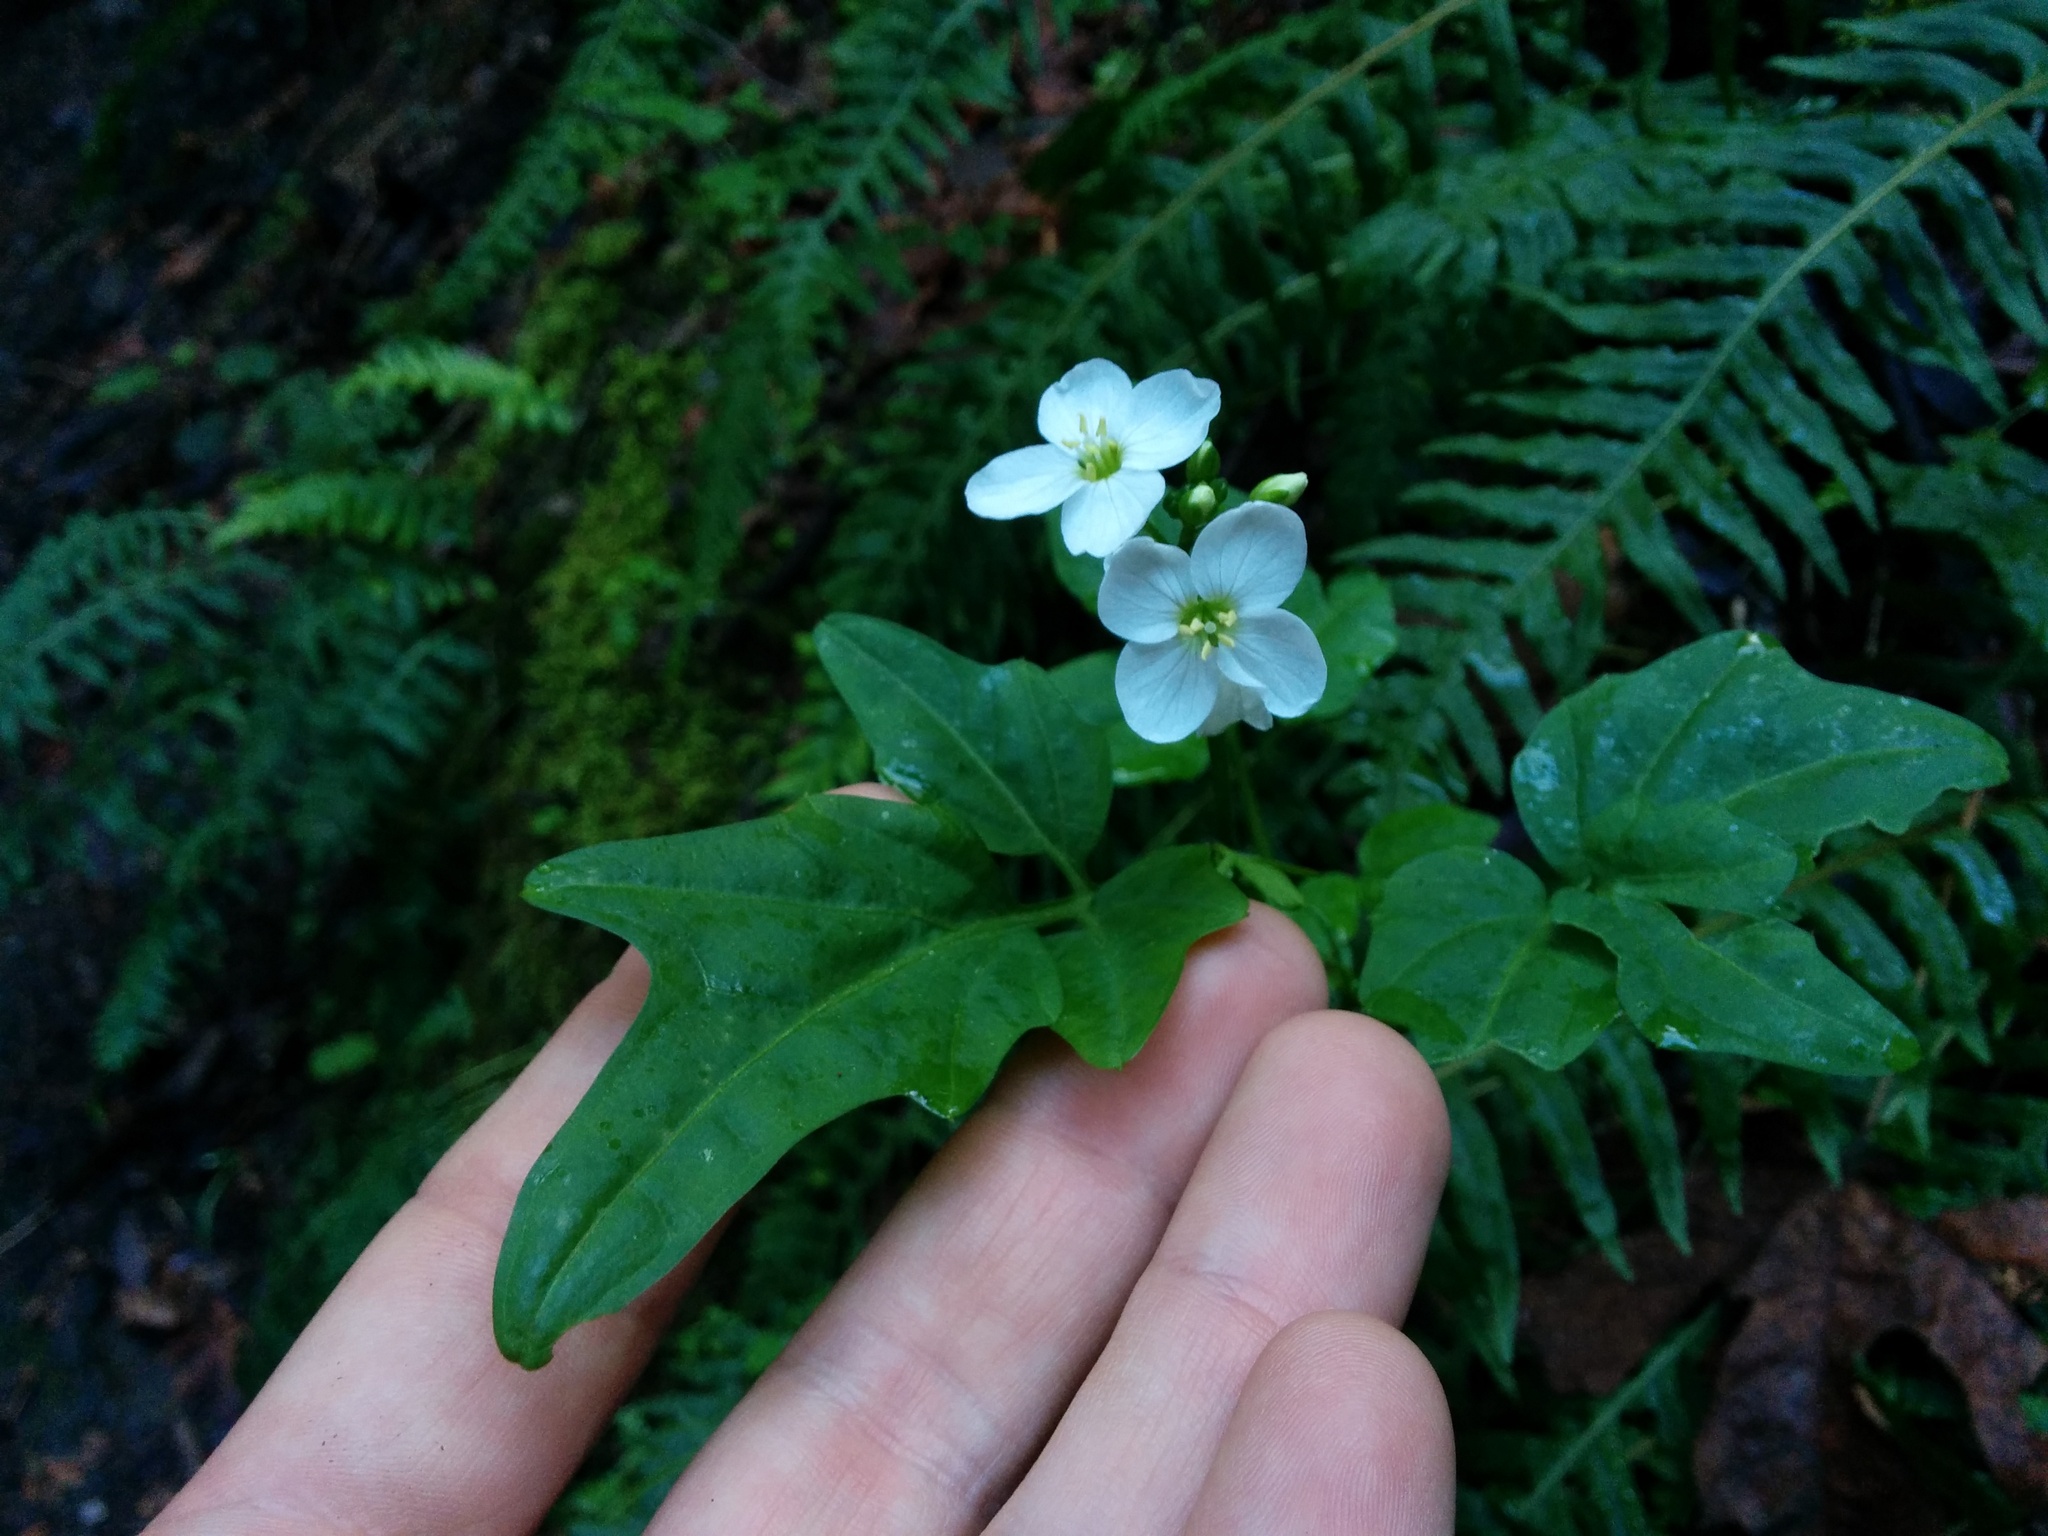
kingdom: Plantae
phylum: Tracheophyta
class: Magnoliopsida
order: Brassicales
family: Brassicaceae
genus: Cardamine
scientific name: Cardamine californica
